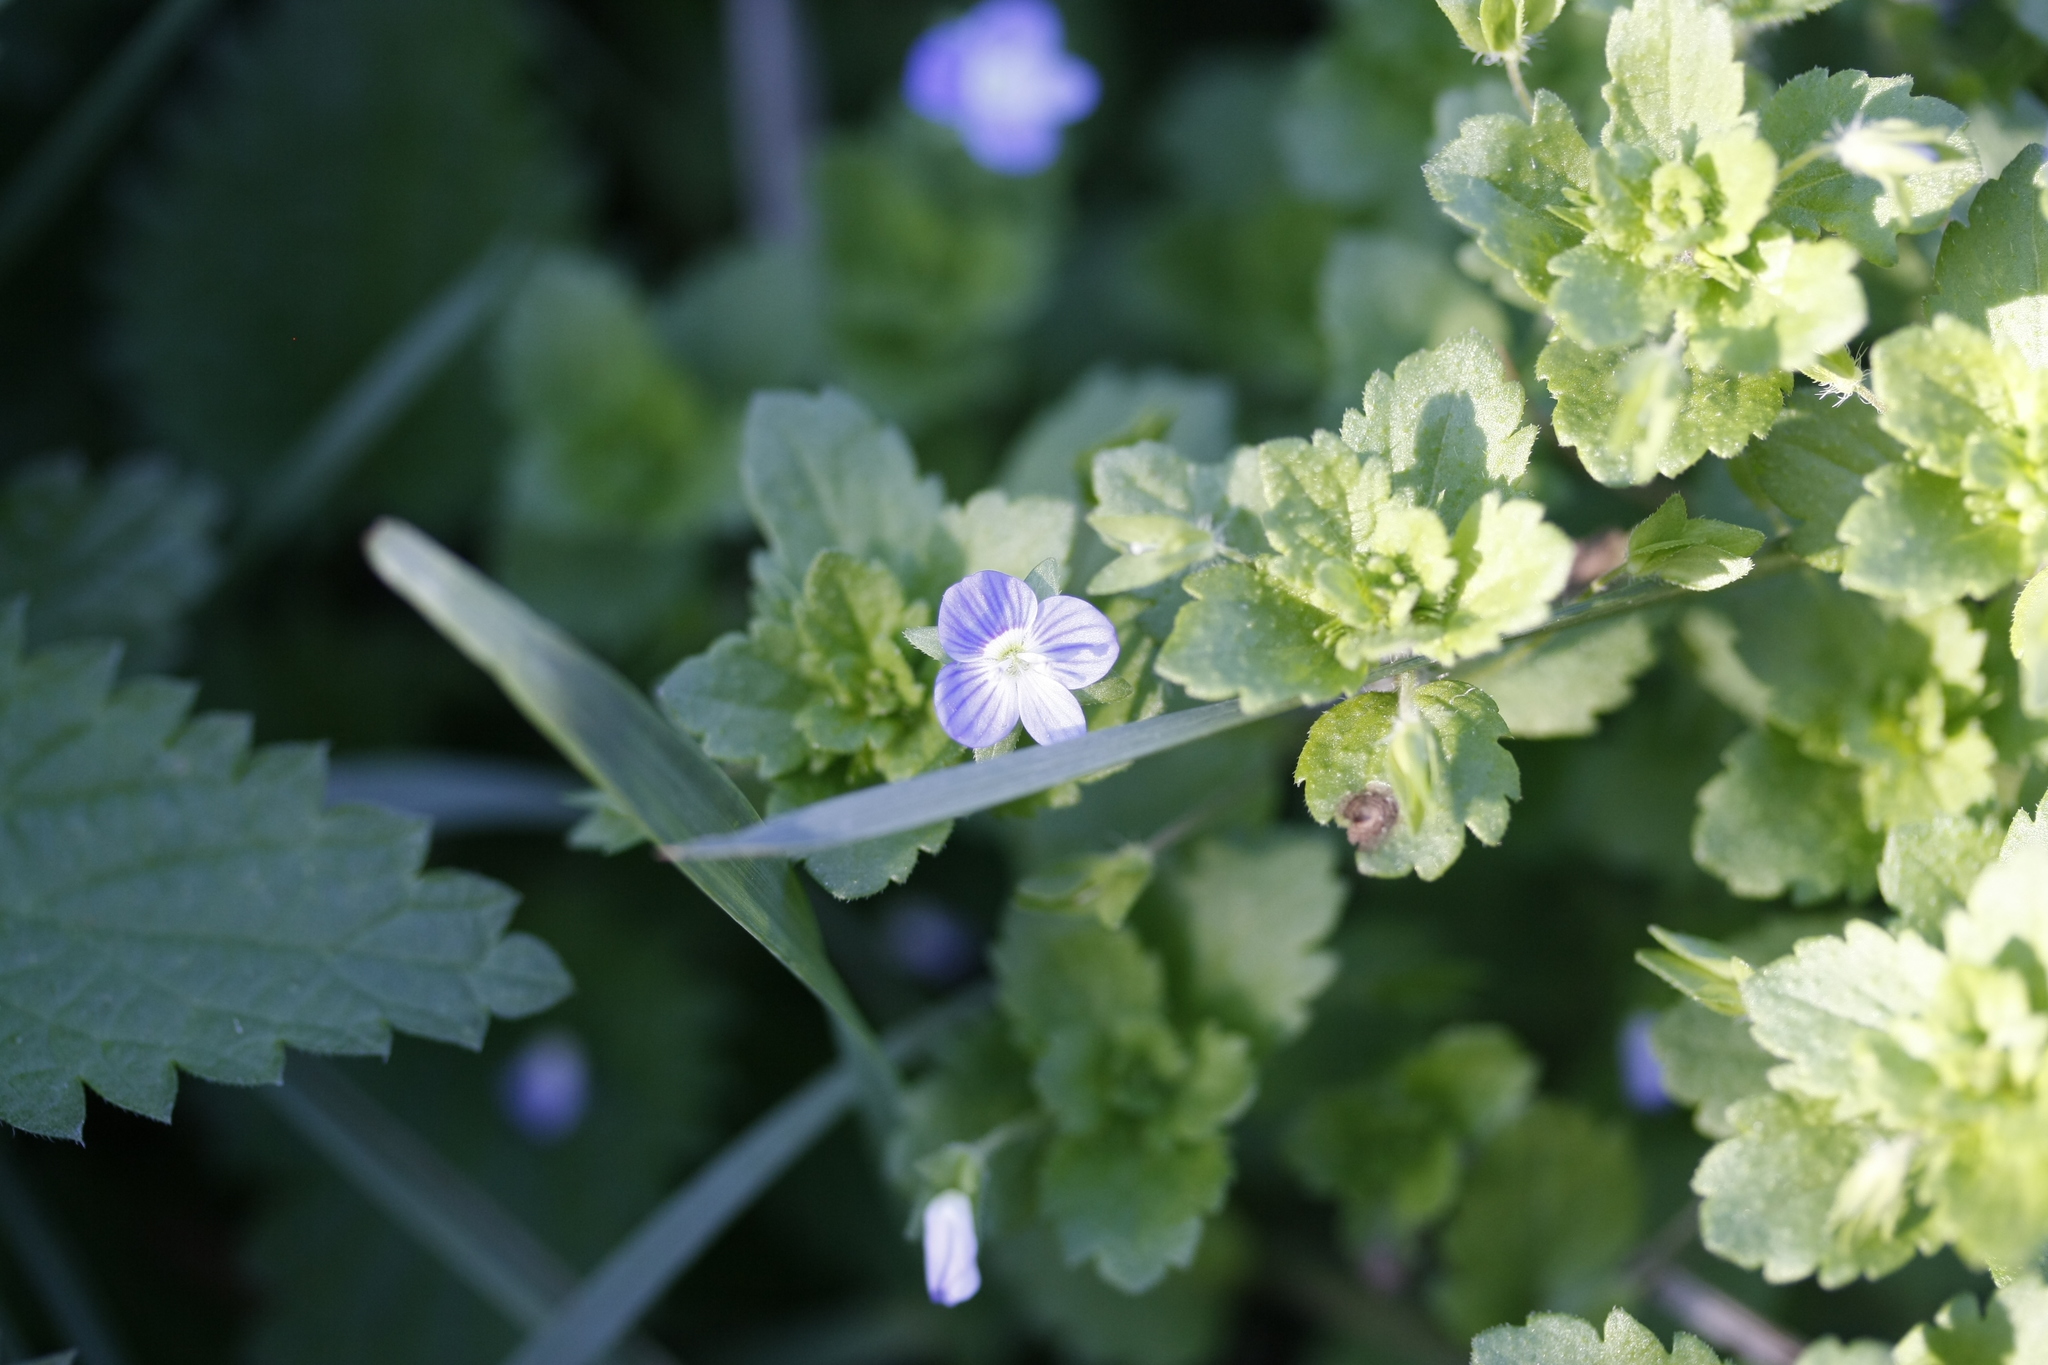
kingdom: Plantae
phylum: Tracheophyta
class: Magnoliopsida
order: Lamiales
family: Plantaginaceae
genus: Veronica
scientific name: Veronica persica
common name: Common field-speedwell
